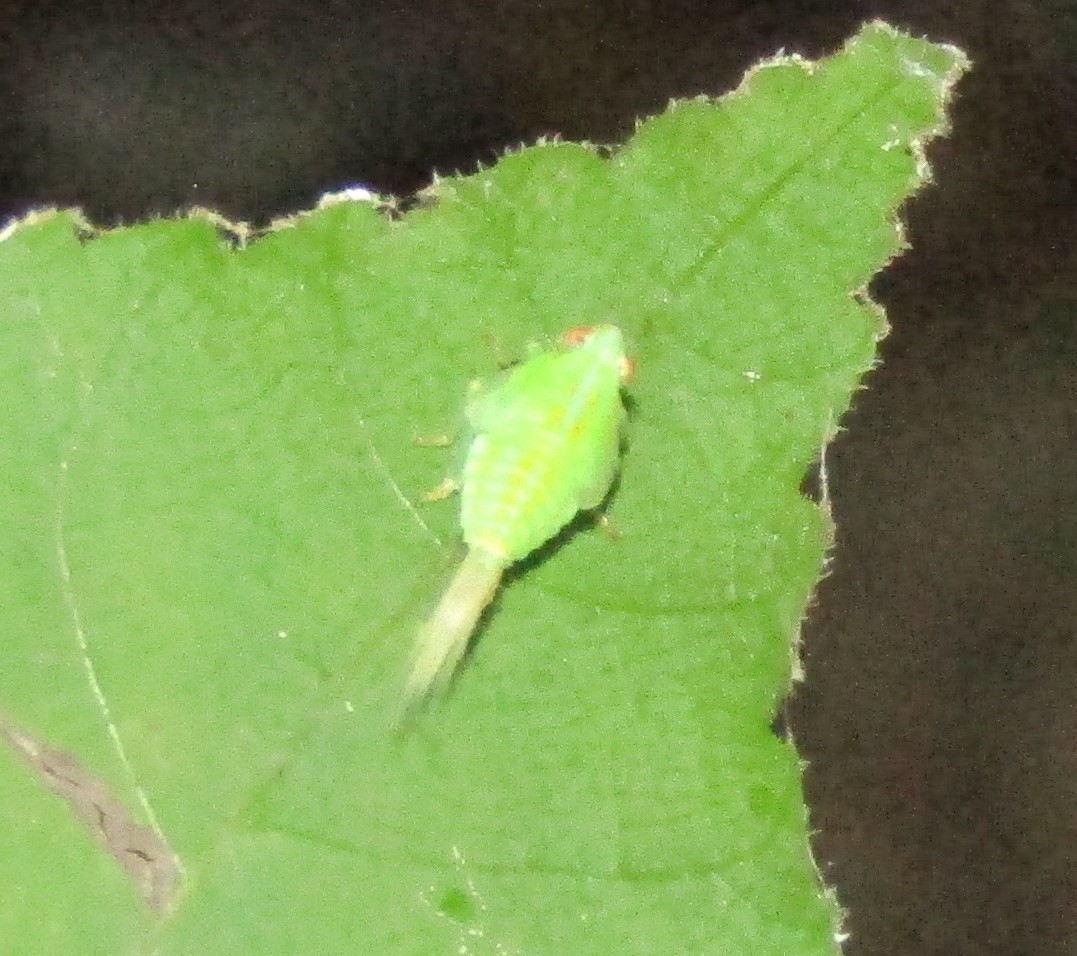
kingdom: Animalia
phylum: Arthropoda
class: Insecta
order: Hemiptera
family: Issidae
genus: Thionia
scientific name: Thionia quinquata
